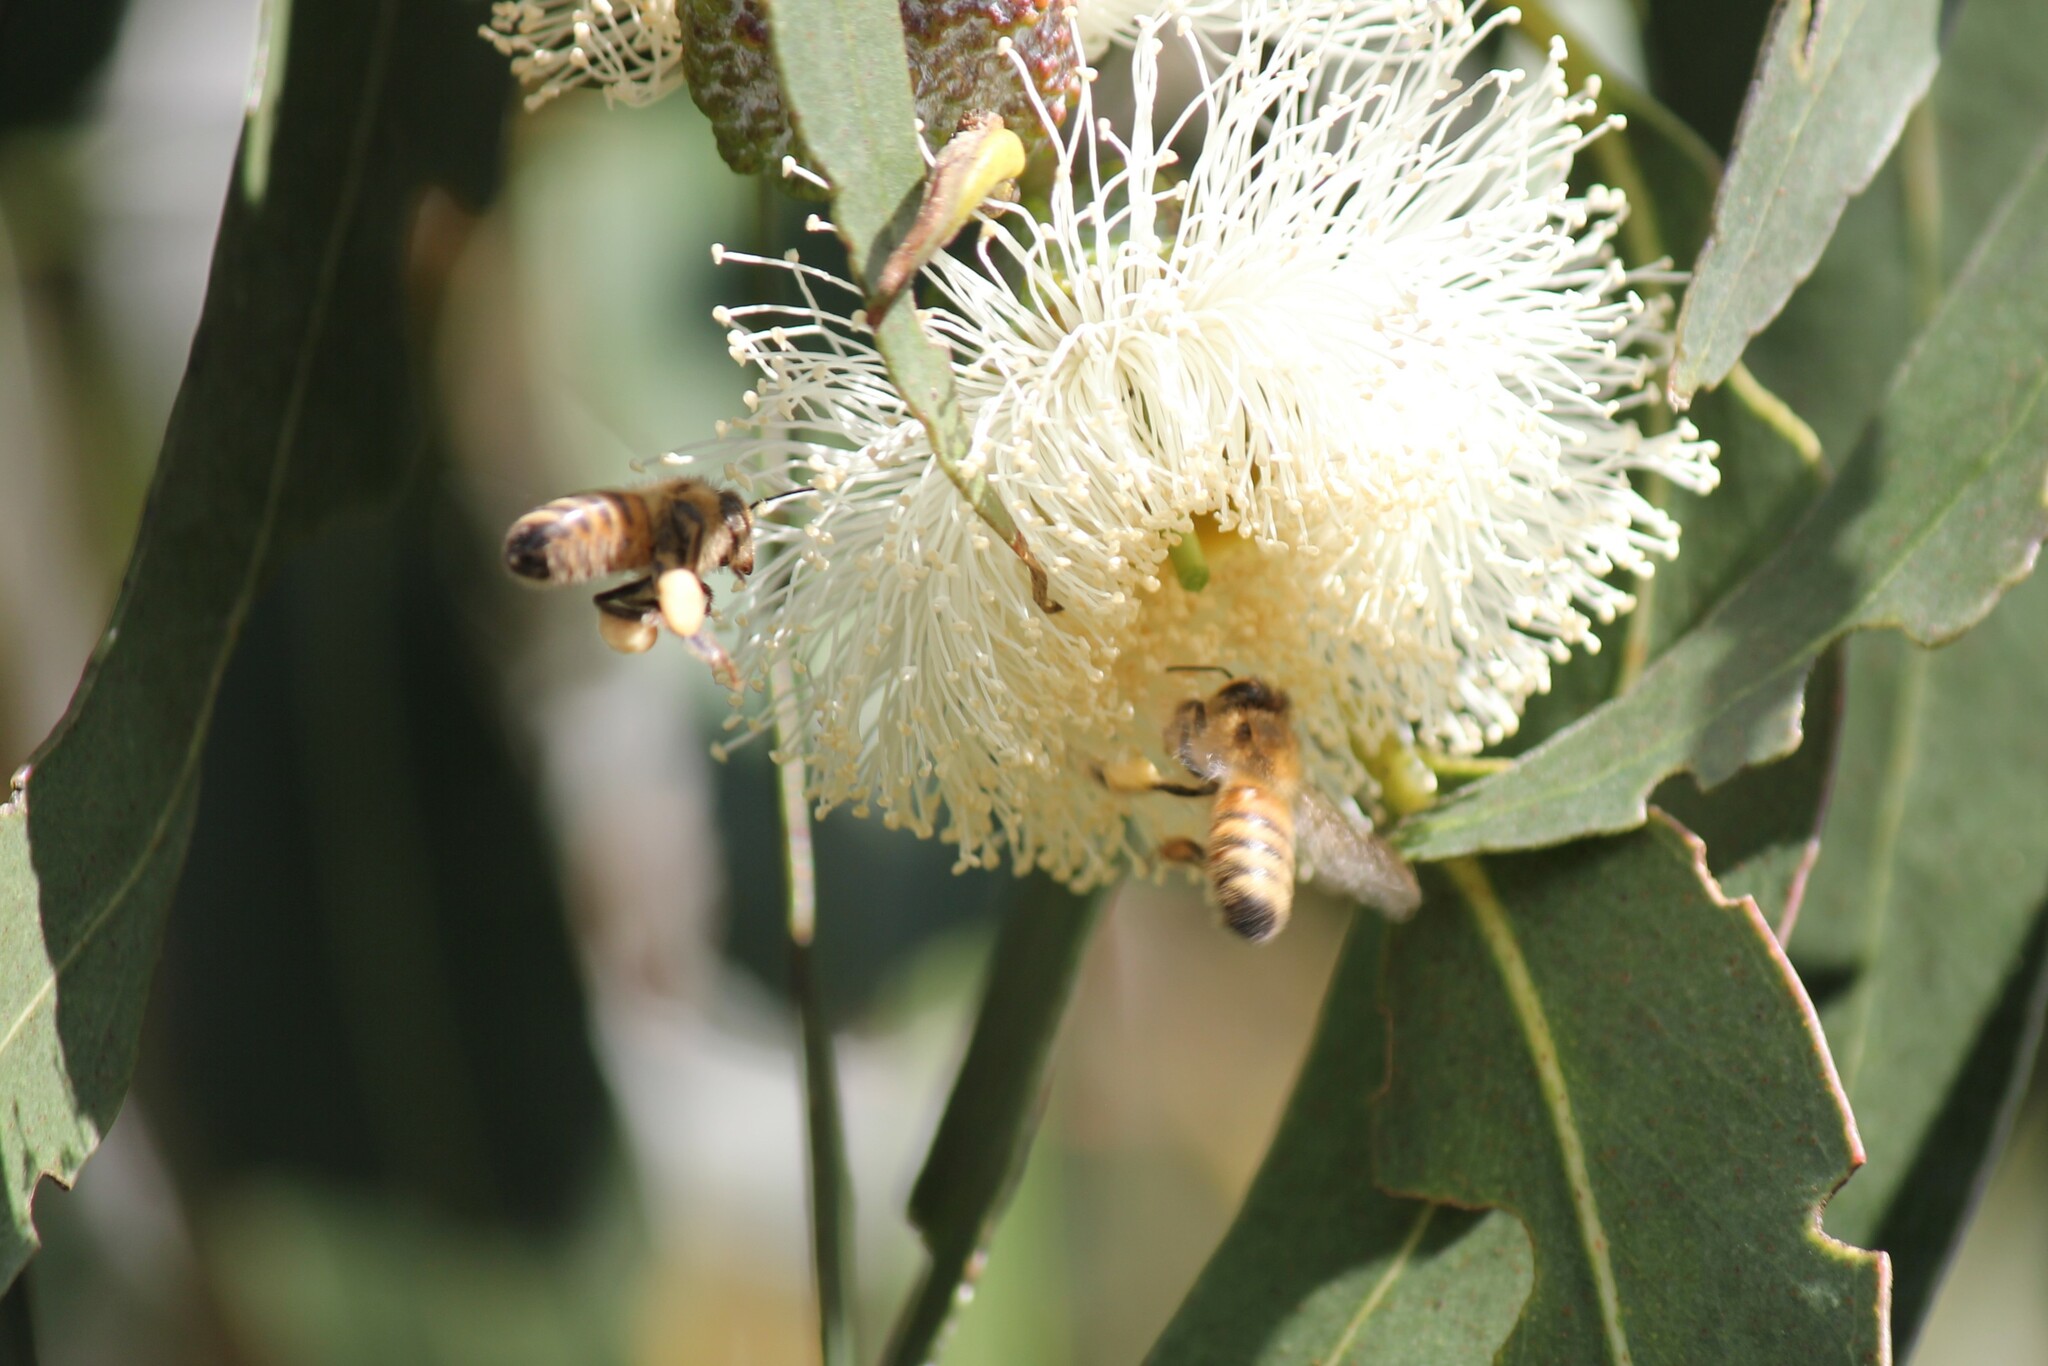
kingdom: Animalia
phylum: Arthropoda
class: Insecta
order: Hymenoptera
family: Apidae
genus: Apis
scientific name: Apis mellifera
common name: Honey bee
